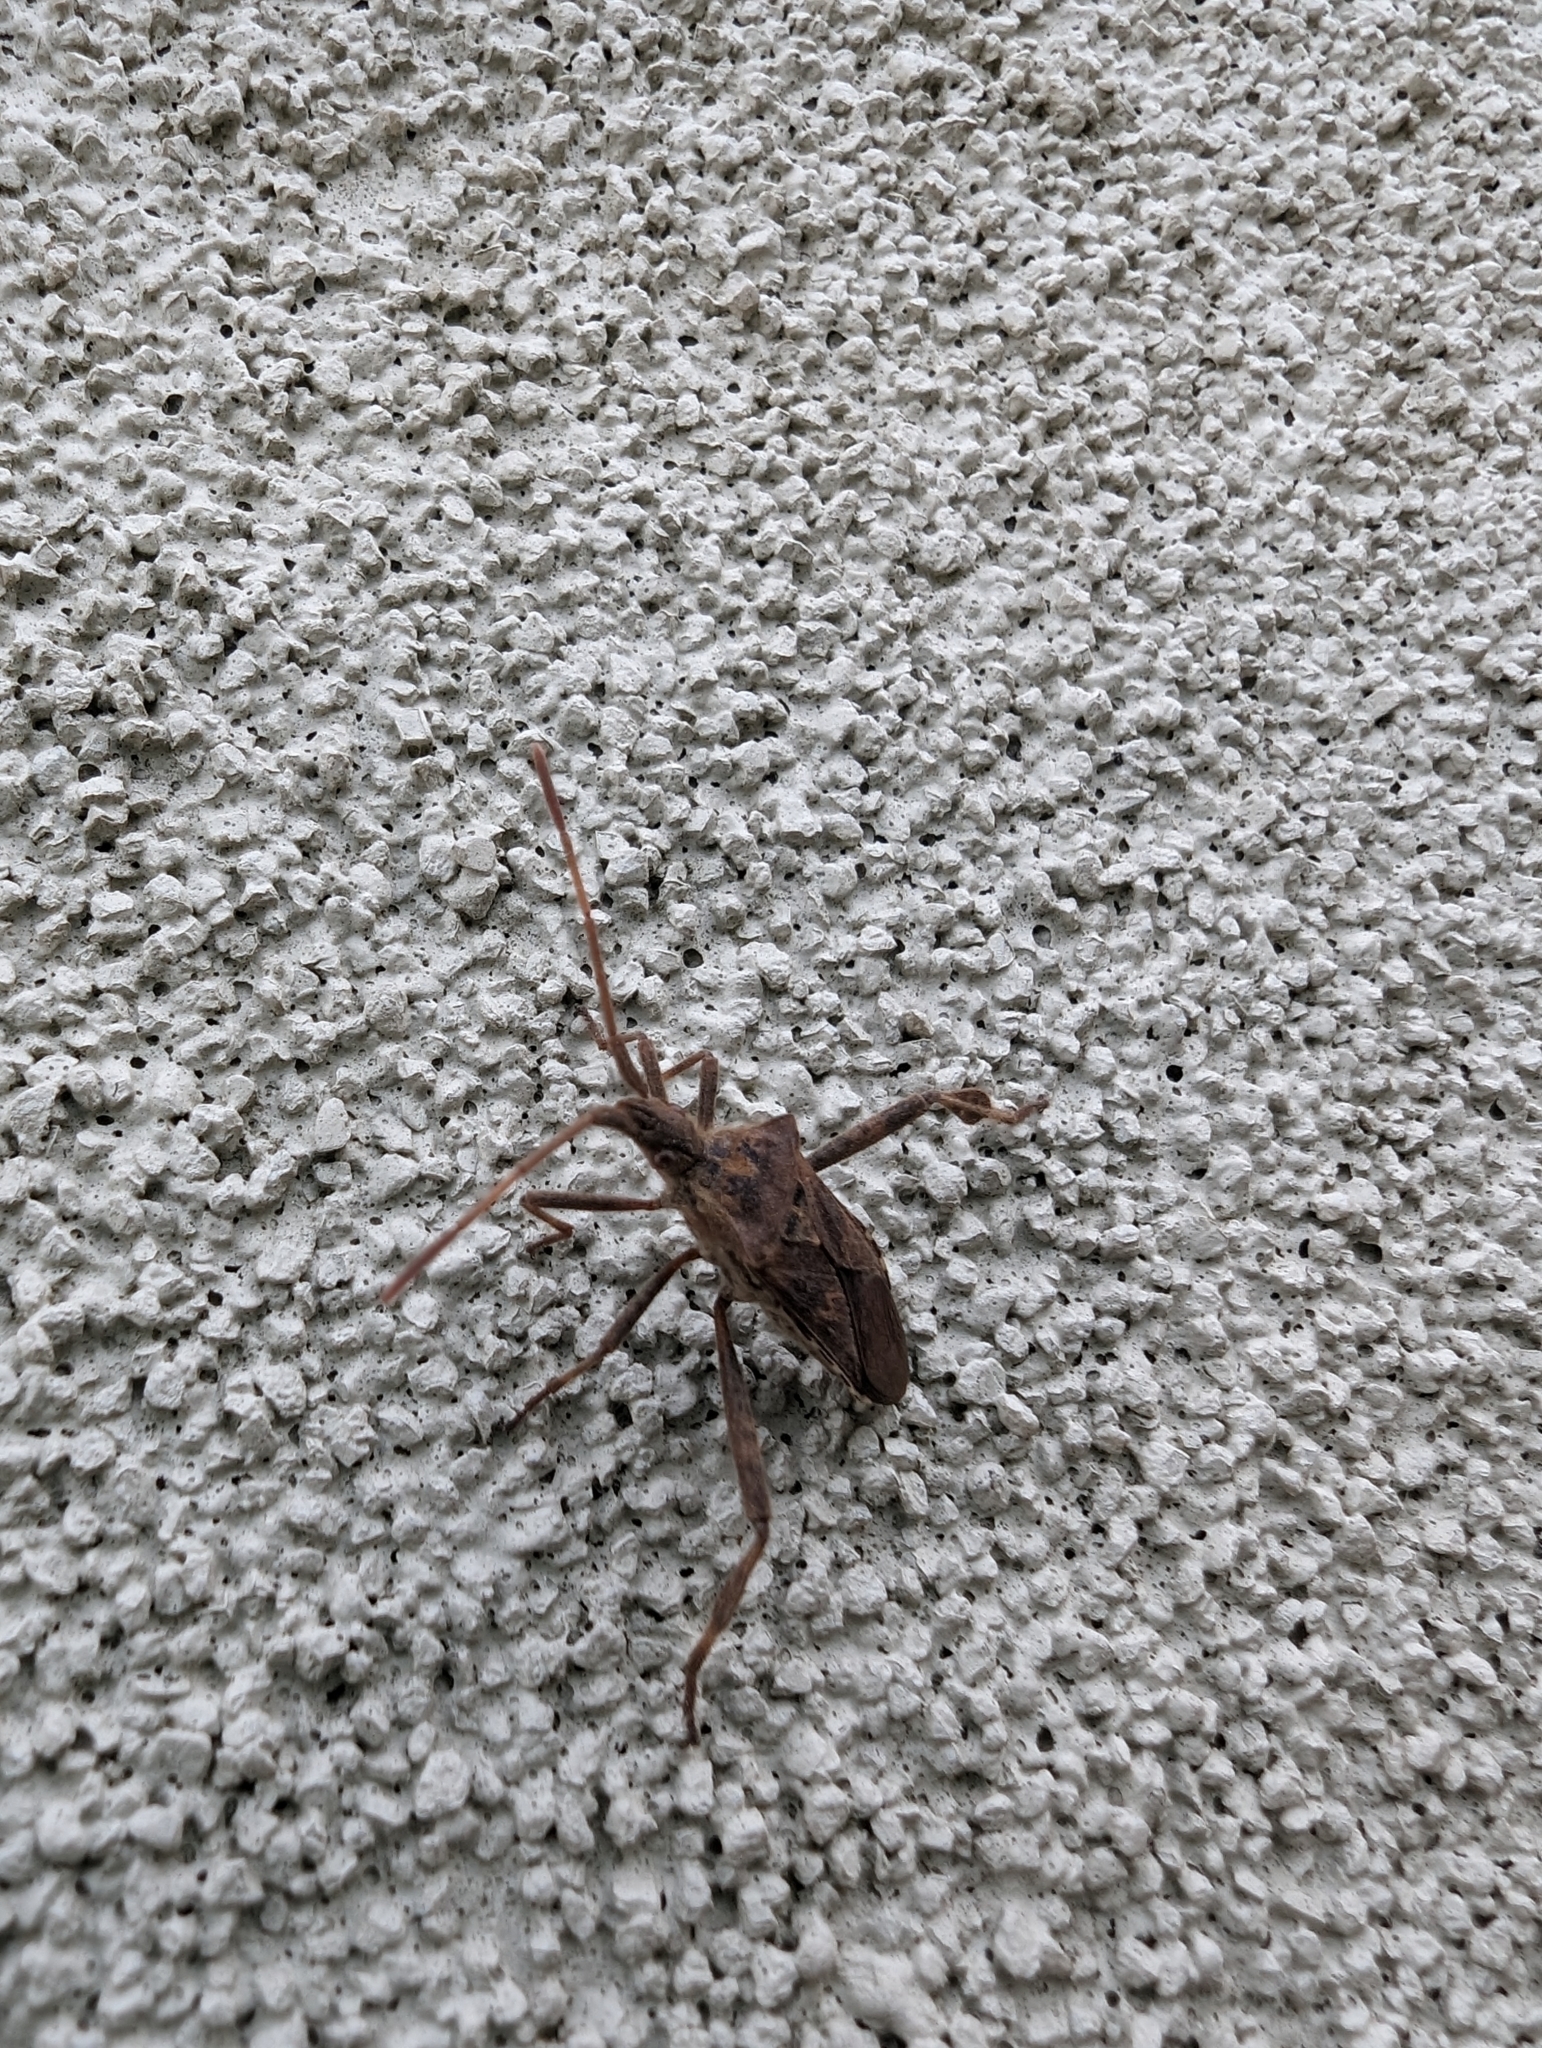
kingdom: Animalia
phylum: Arthropoda
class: Insecta
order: Hemiptera
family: Coreidae
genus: Leptoglossus
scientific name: Leptoglossus occidentalis
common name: Western conifer-seed bug
